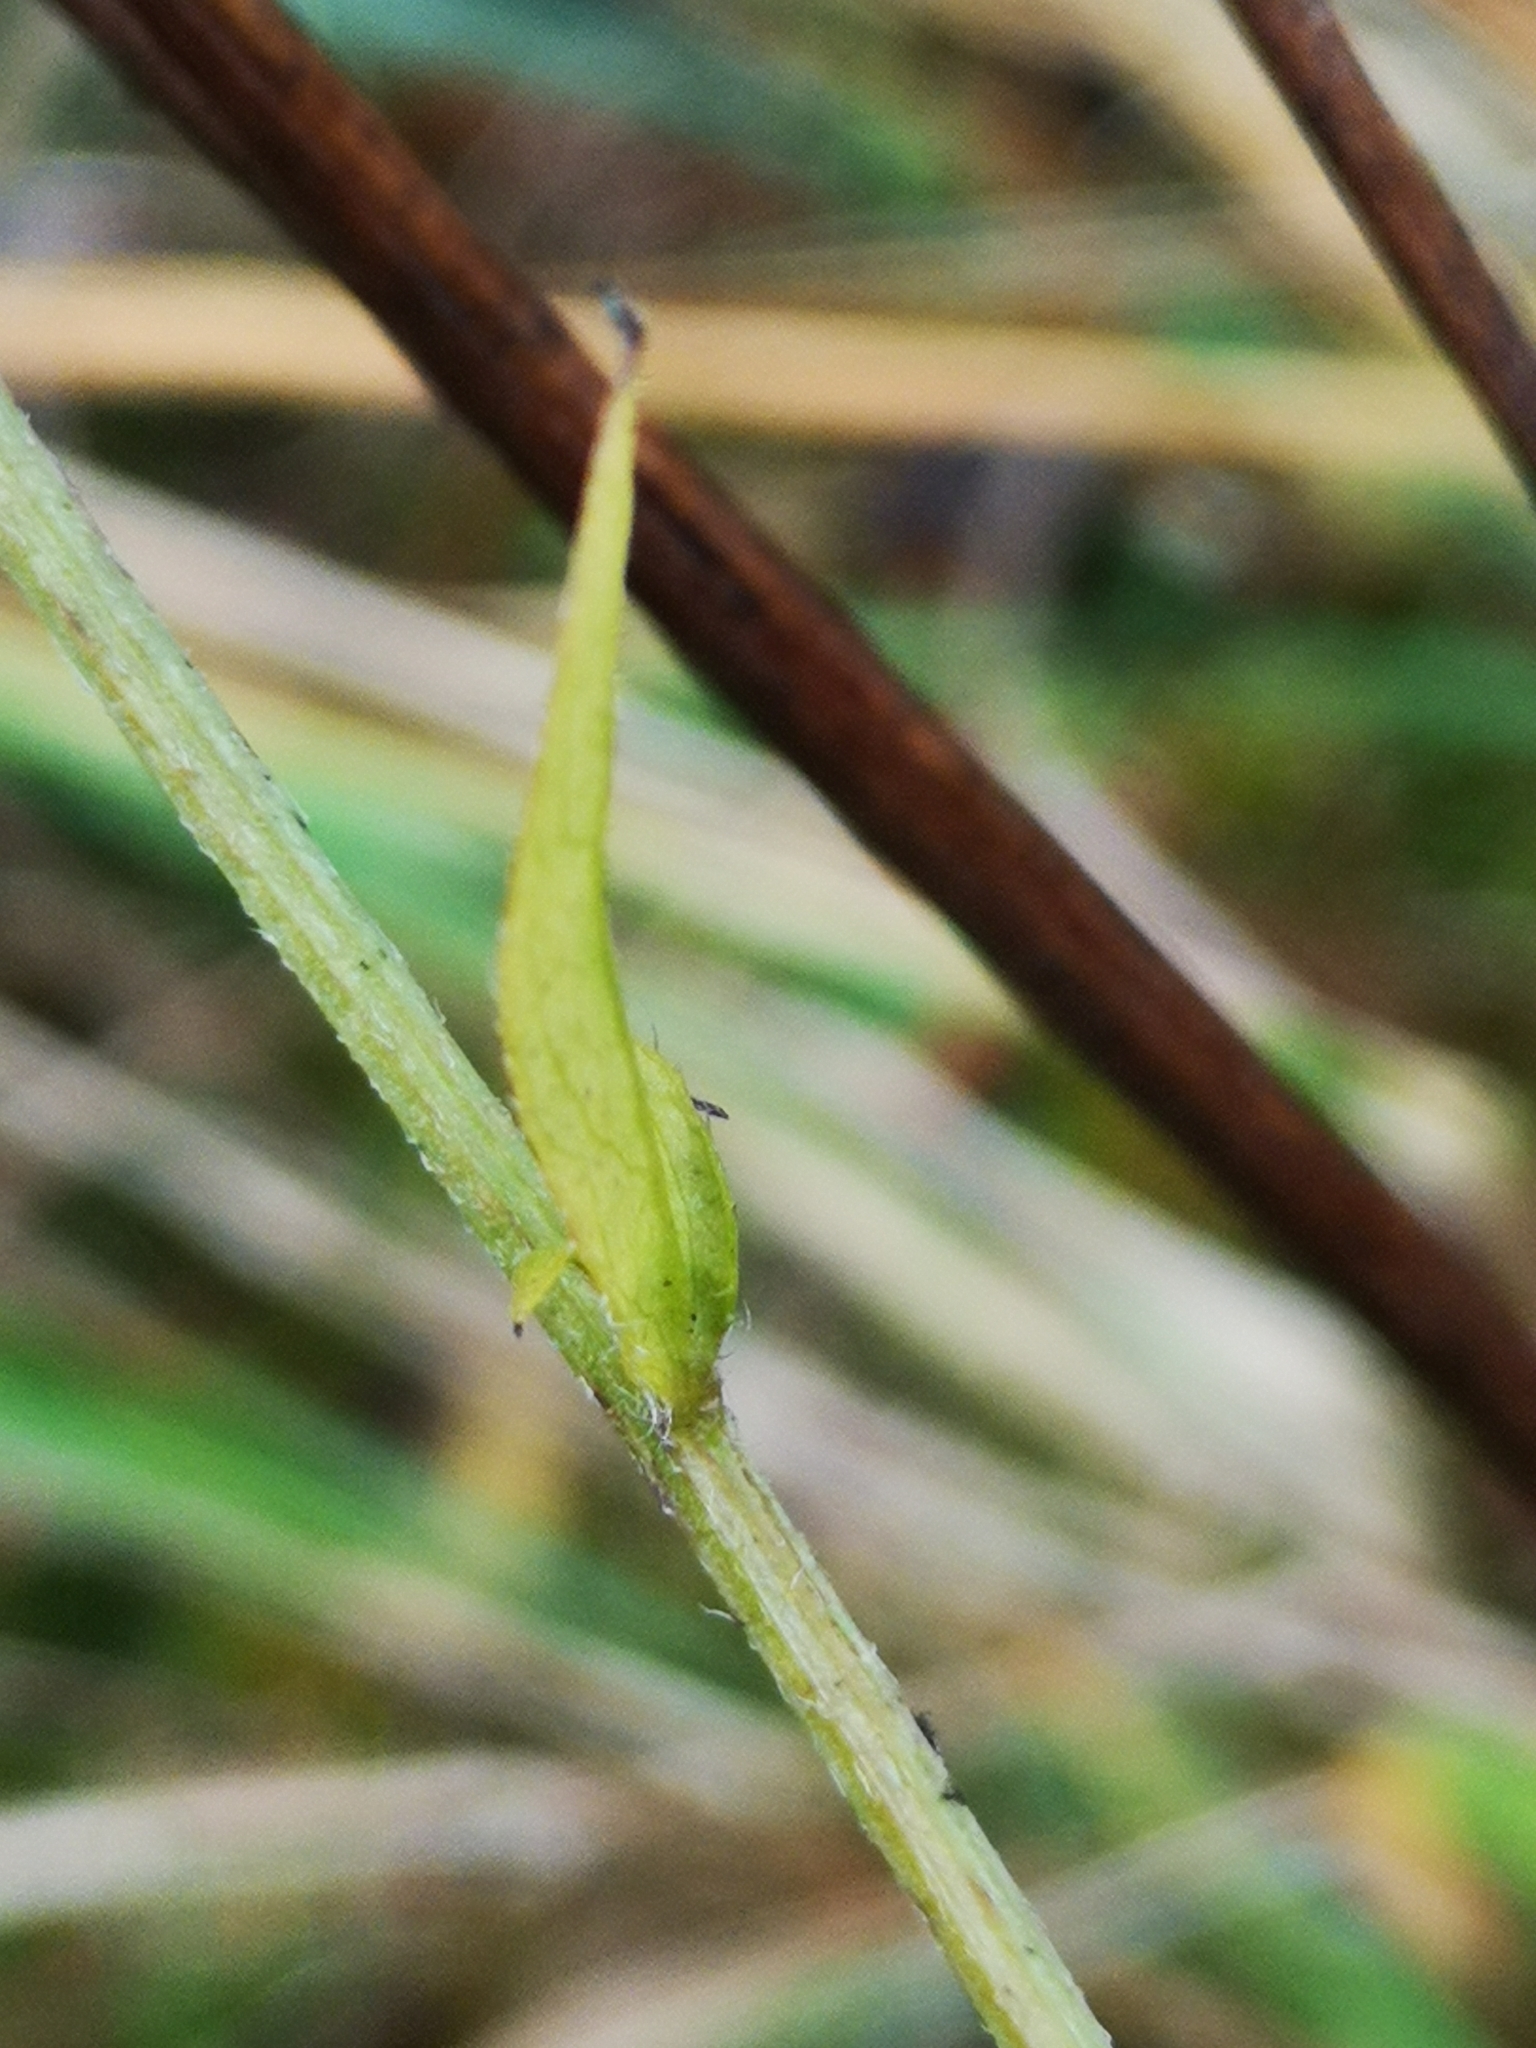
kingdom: Plantae
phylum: Tracheophyta
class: Magnoliopsida
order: Asterales
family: Asteraceae
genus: Erigeron
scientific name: Erigeron annuus
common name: Tall fleabane
